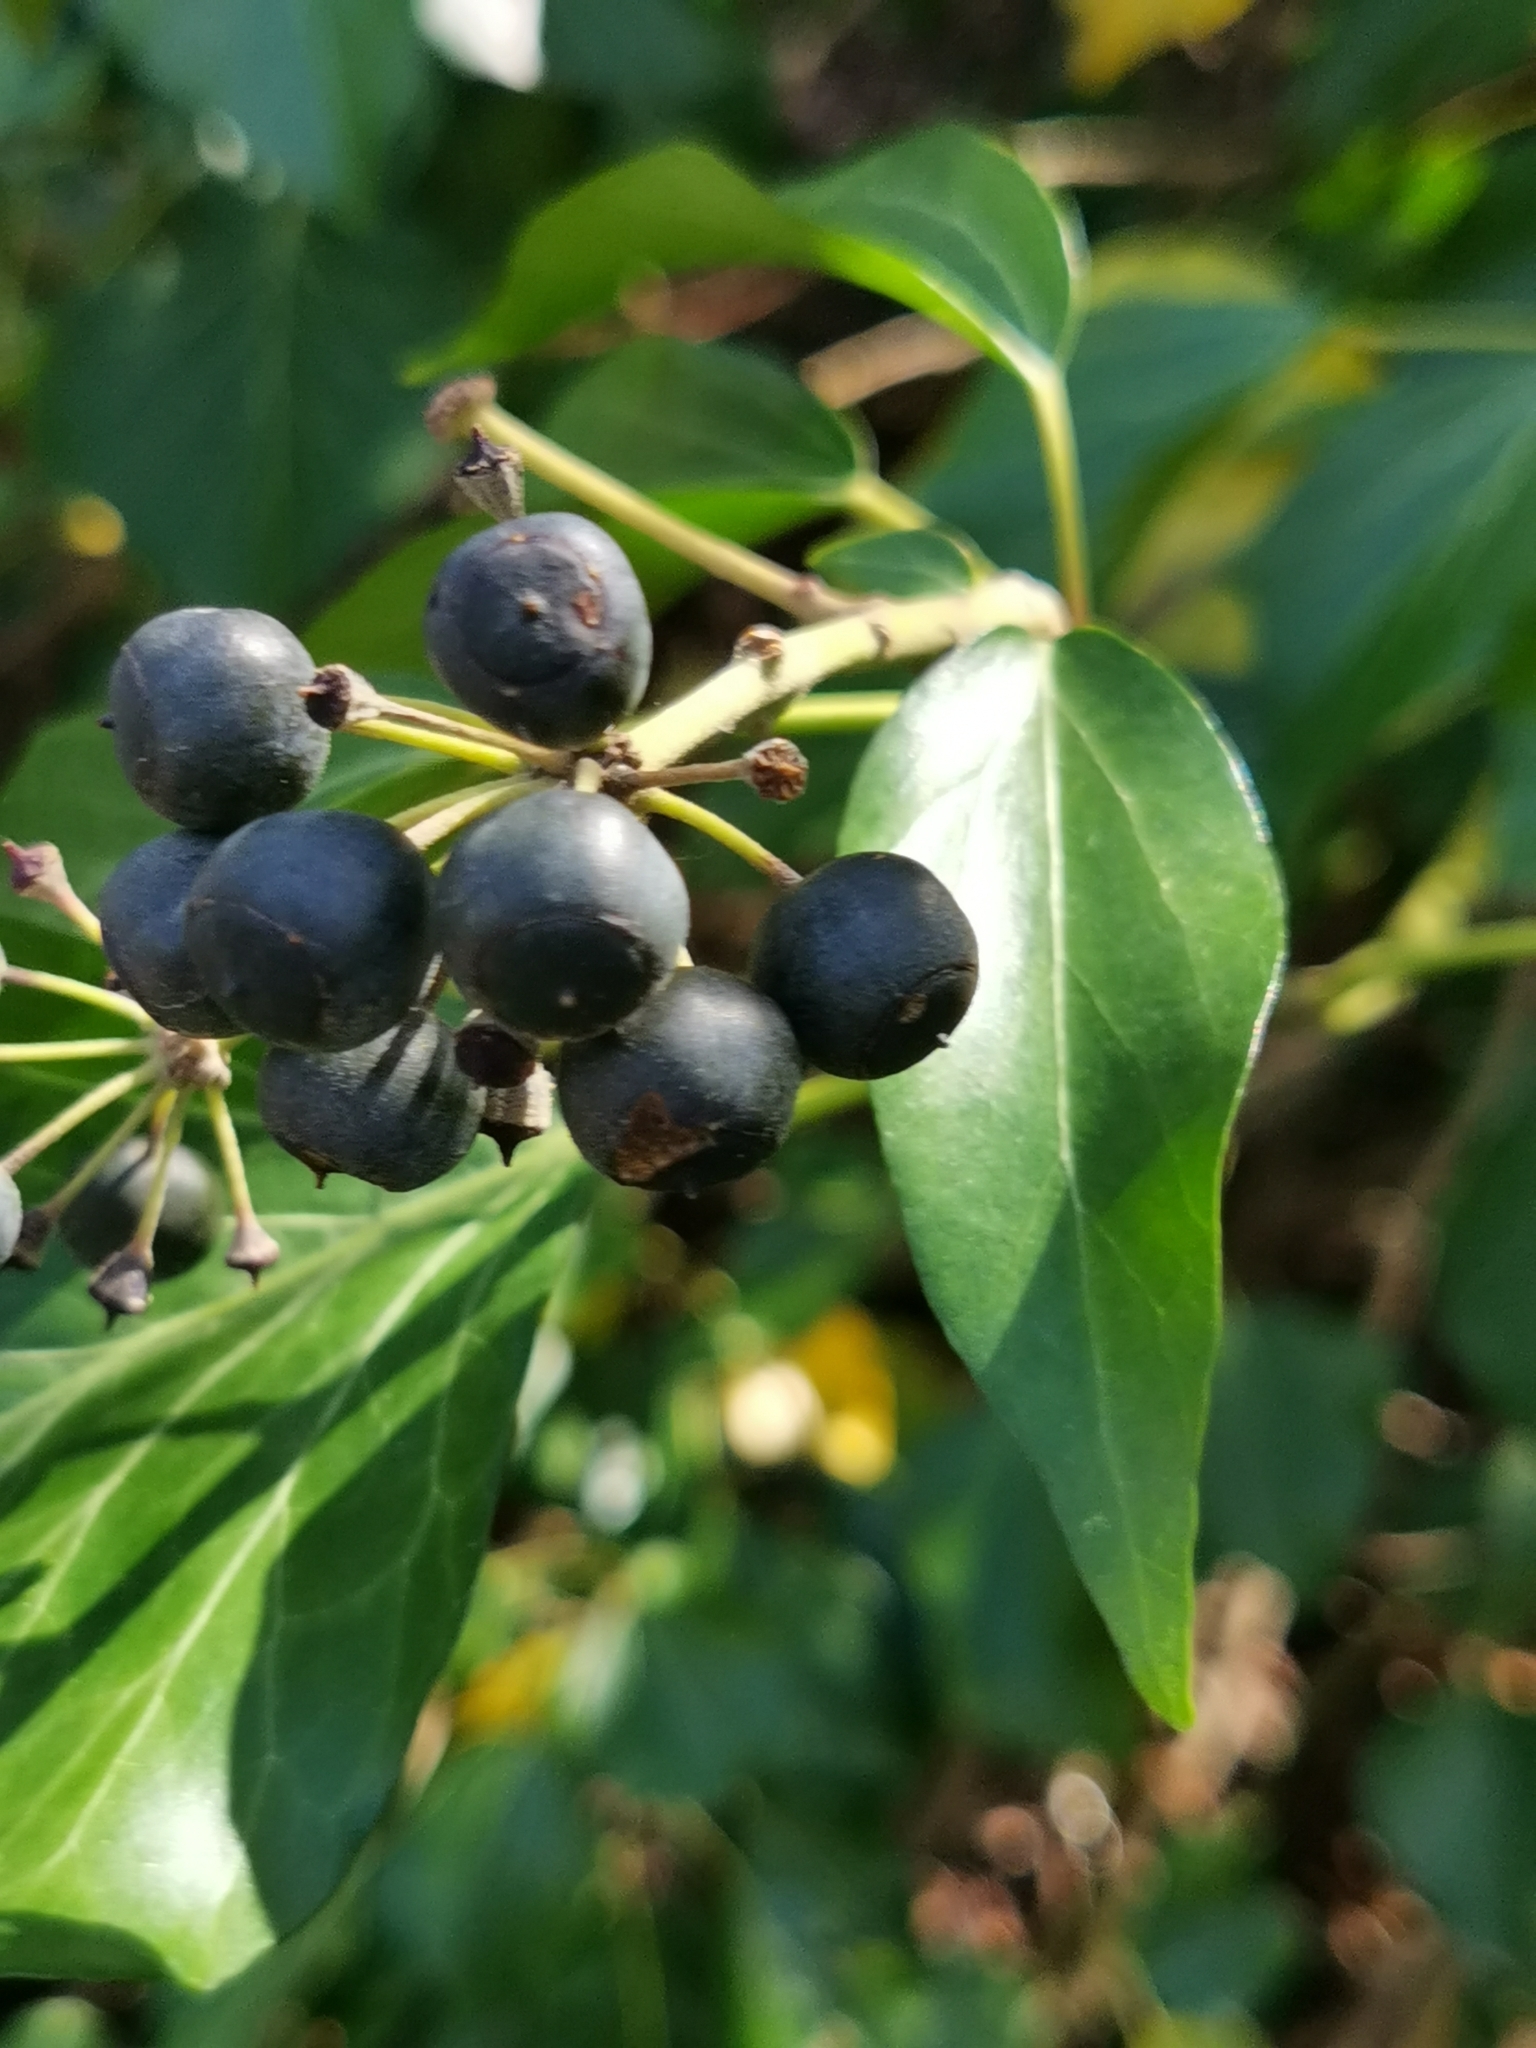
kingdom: Plantae
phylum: Tracheophyta
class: Magnoliopsida
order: Apiales
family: Araliaceae
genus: Hedera
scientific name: Hedera helix
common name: Ivy
